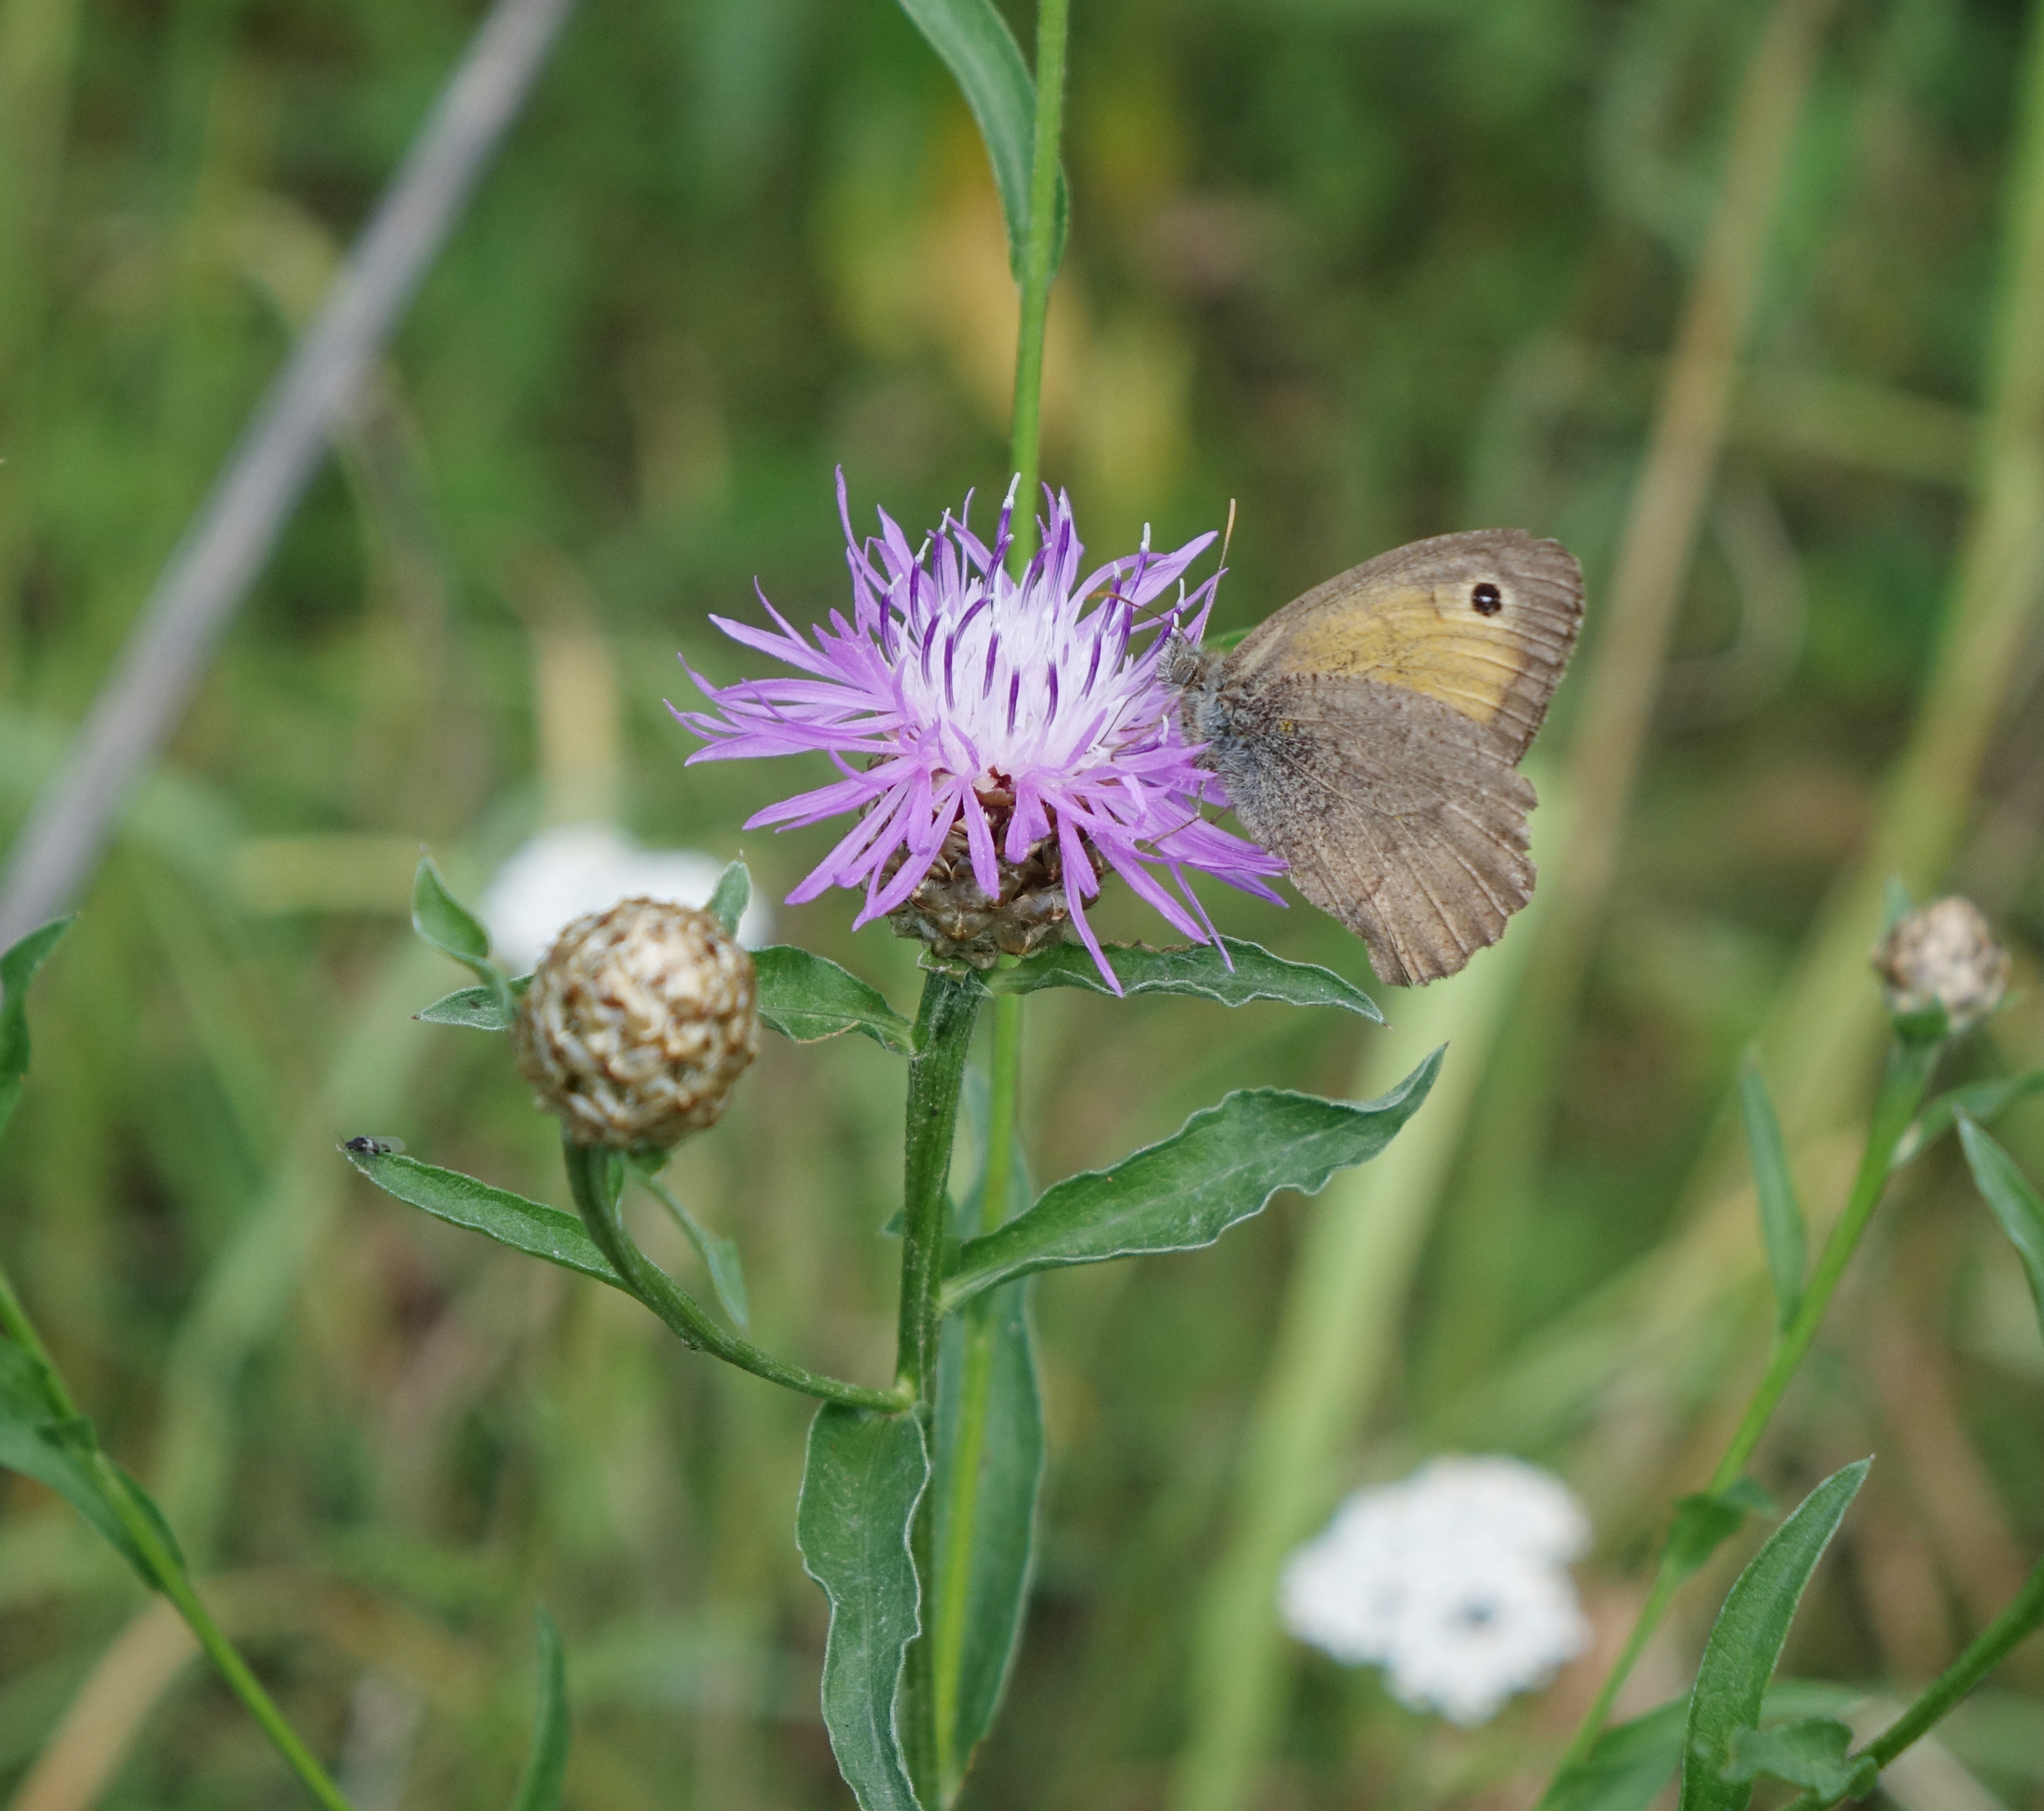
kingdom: Animalia
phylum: Arthropoda
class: Insecta
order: Lepidoptera
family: Nymphalidae
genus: Hyponephele
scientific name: Hyponephele lycaon
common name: Dusky meadow brown
